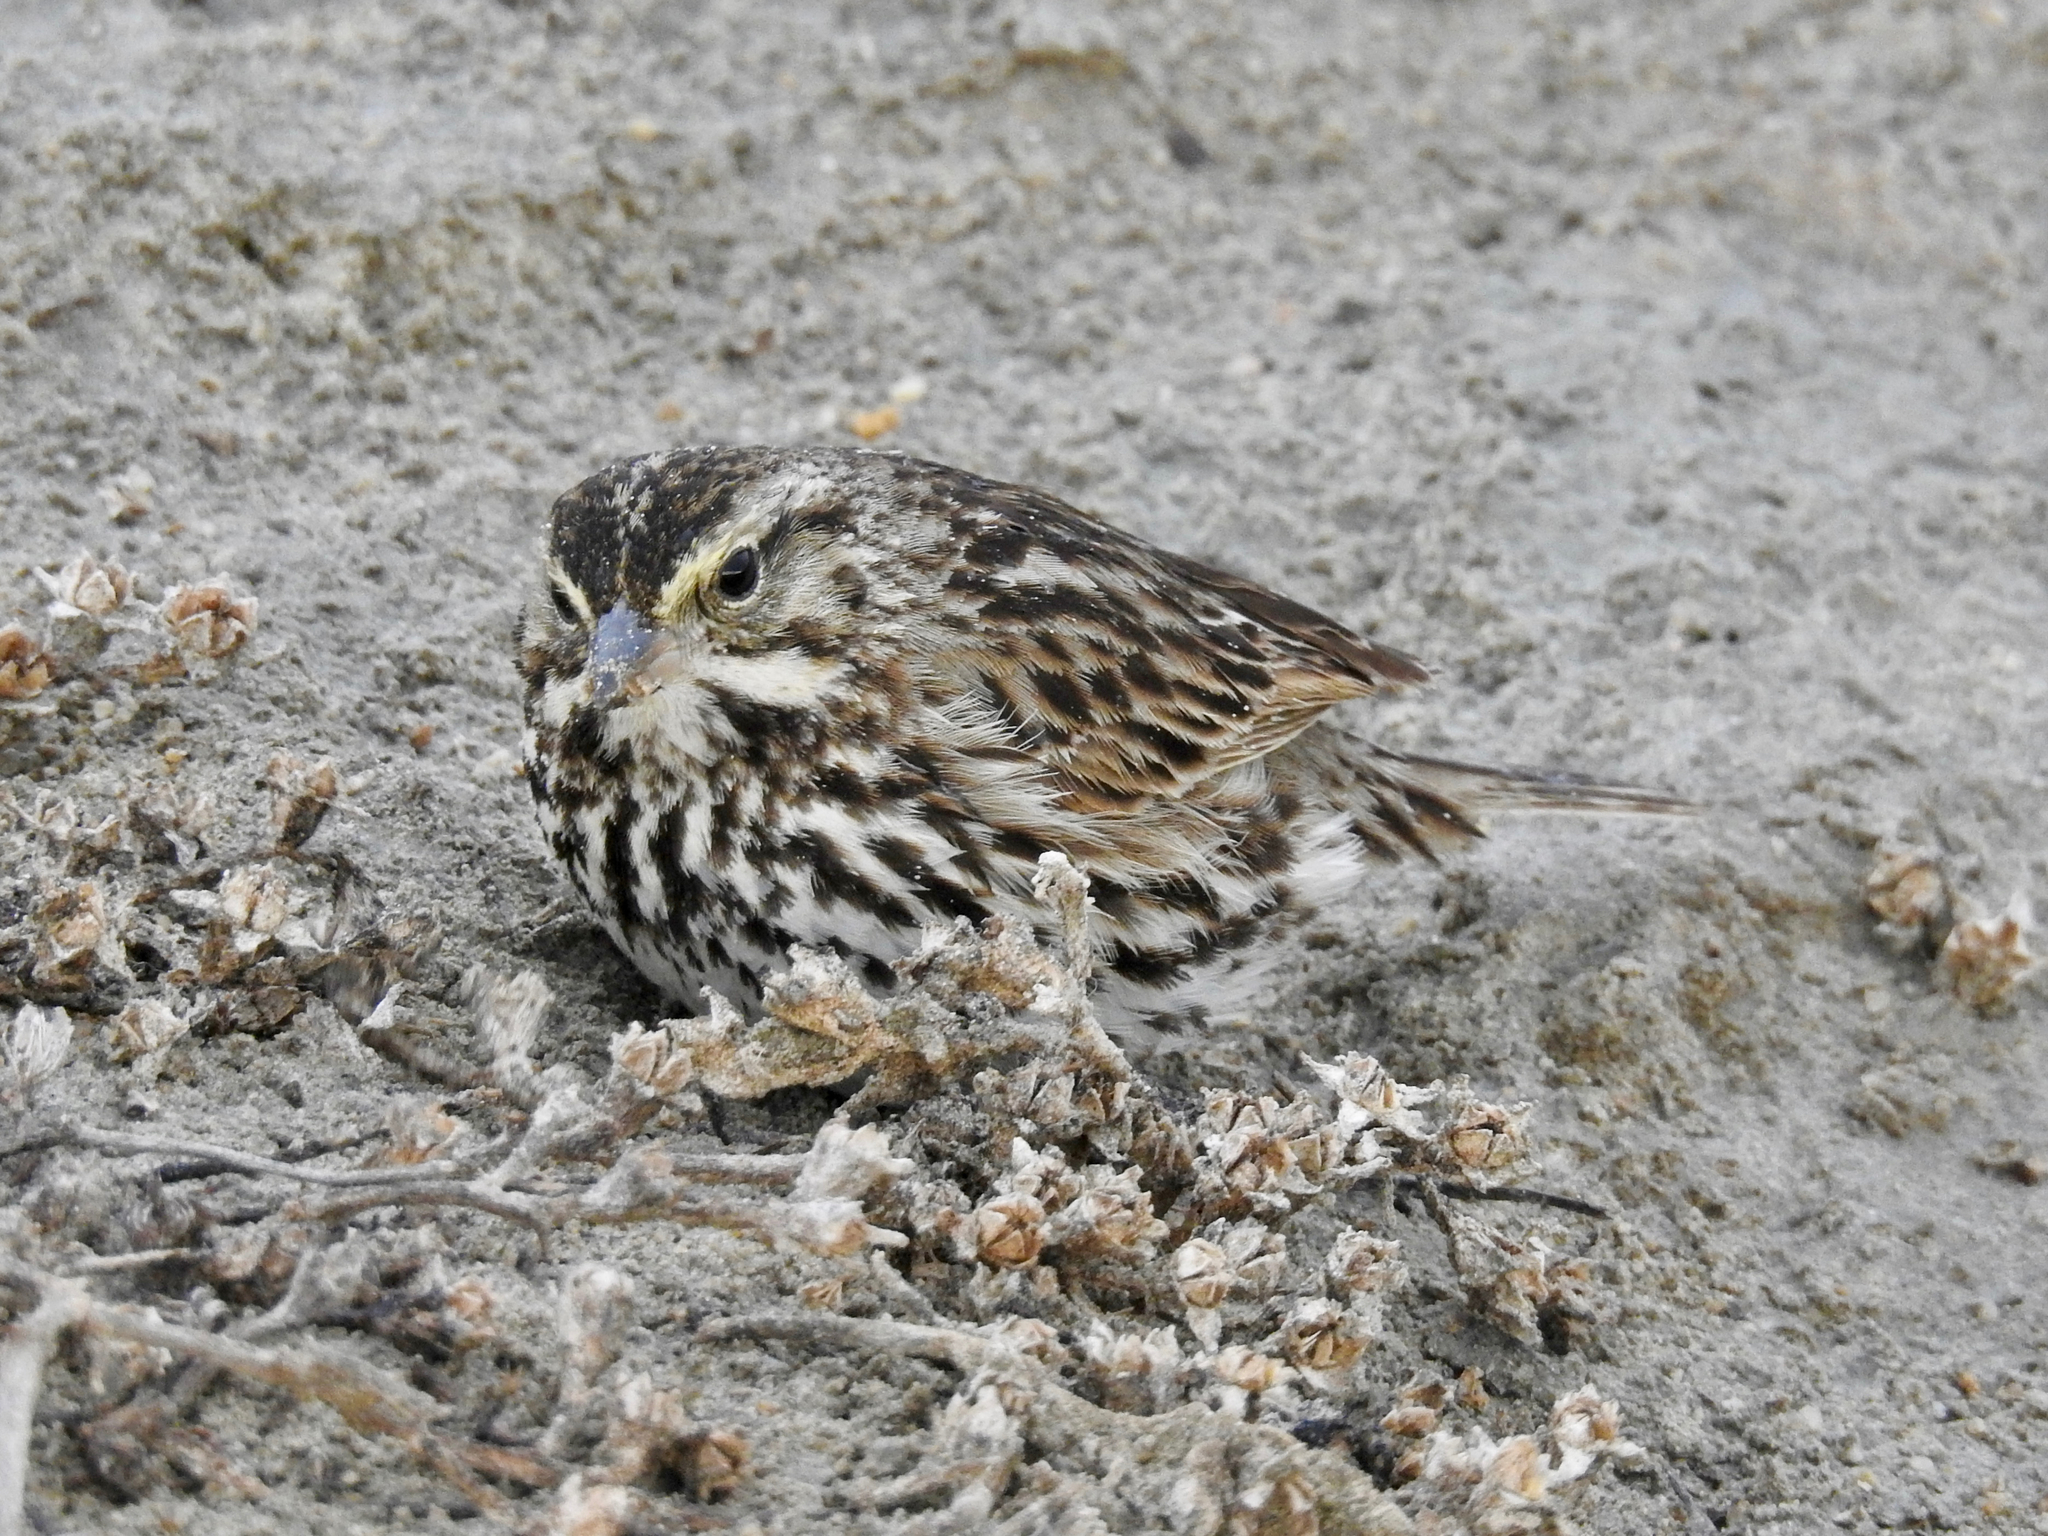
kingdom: Animalia
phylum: Chordata
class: Aves
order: Passeriformes
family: Passerellidae
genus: Passerculus
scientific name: Passerculus sandwichensis
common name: Savannah sparrow
